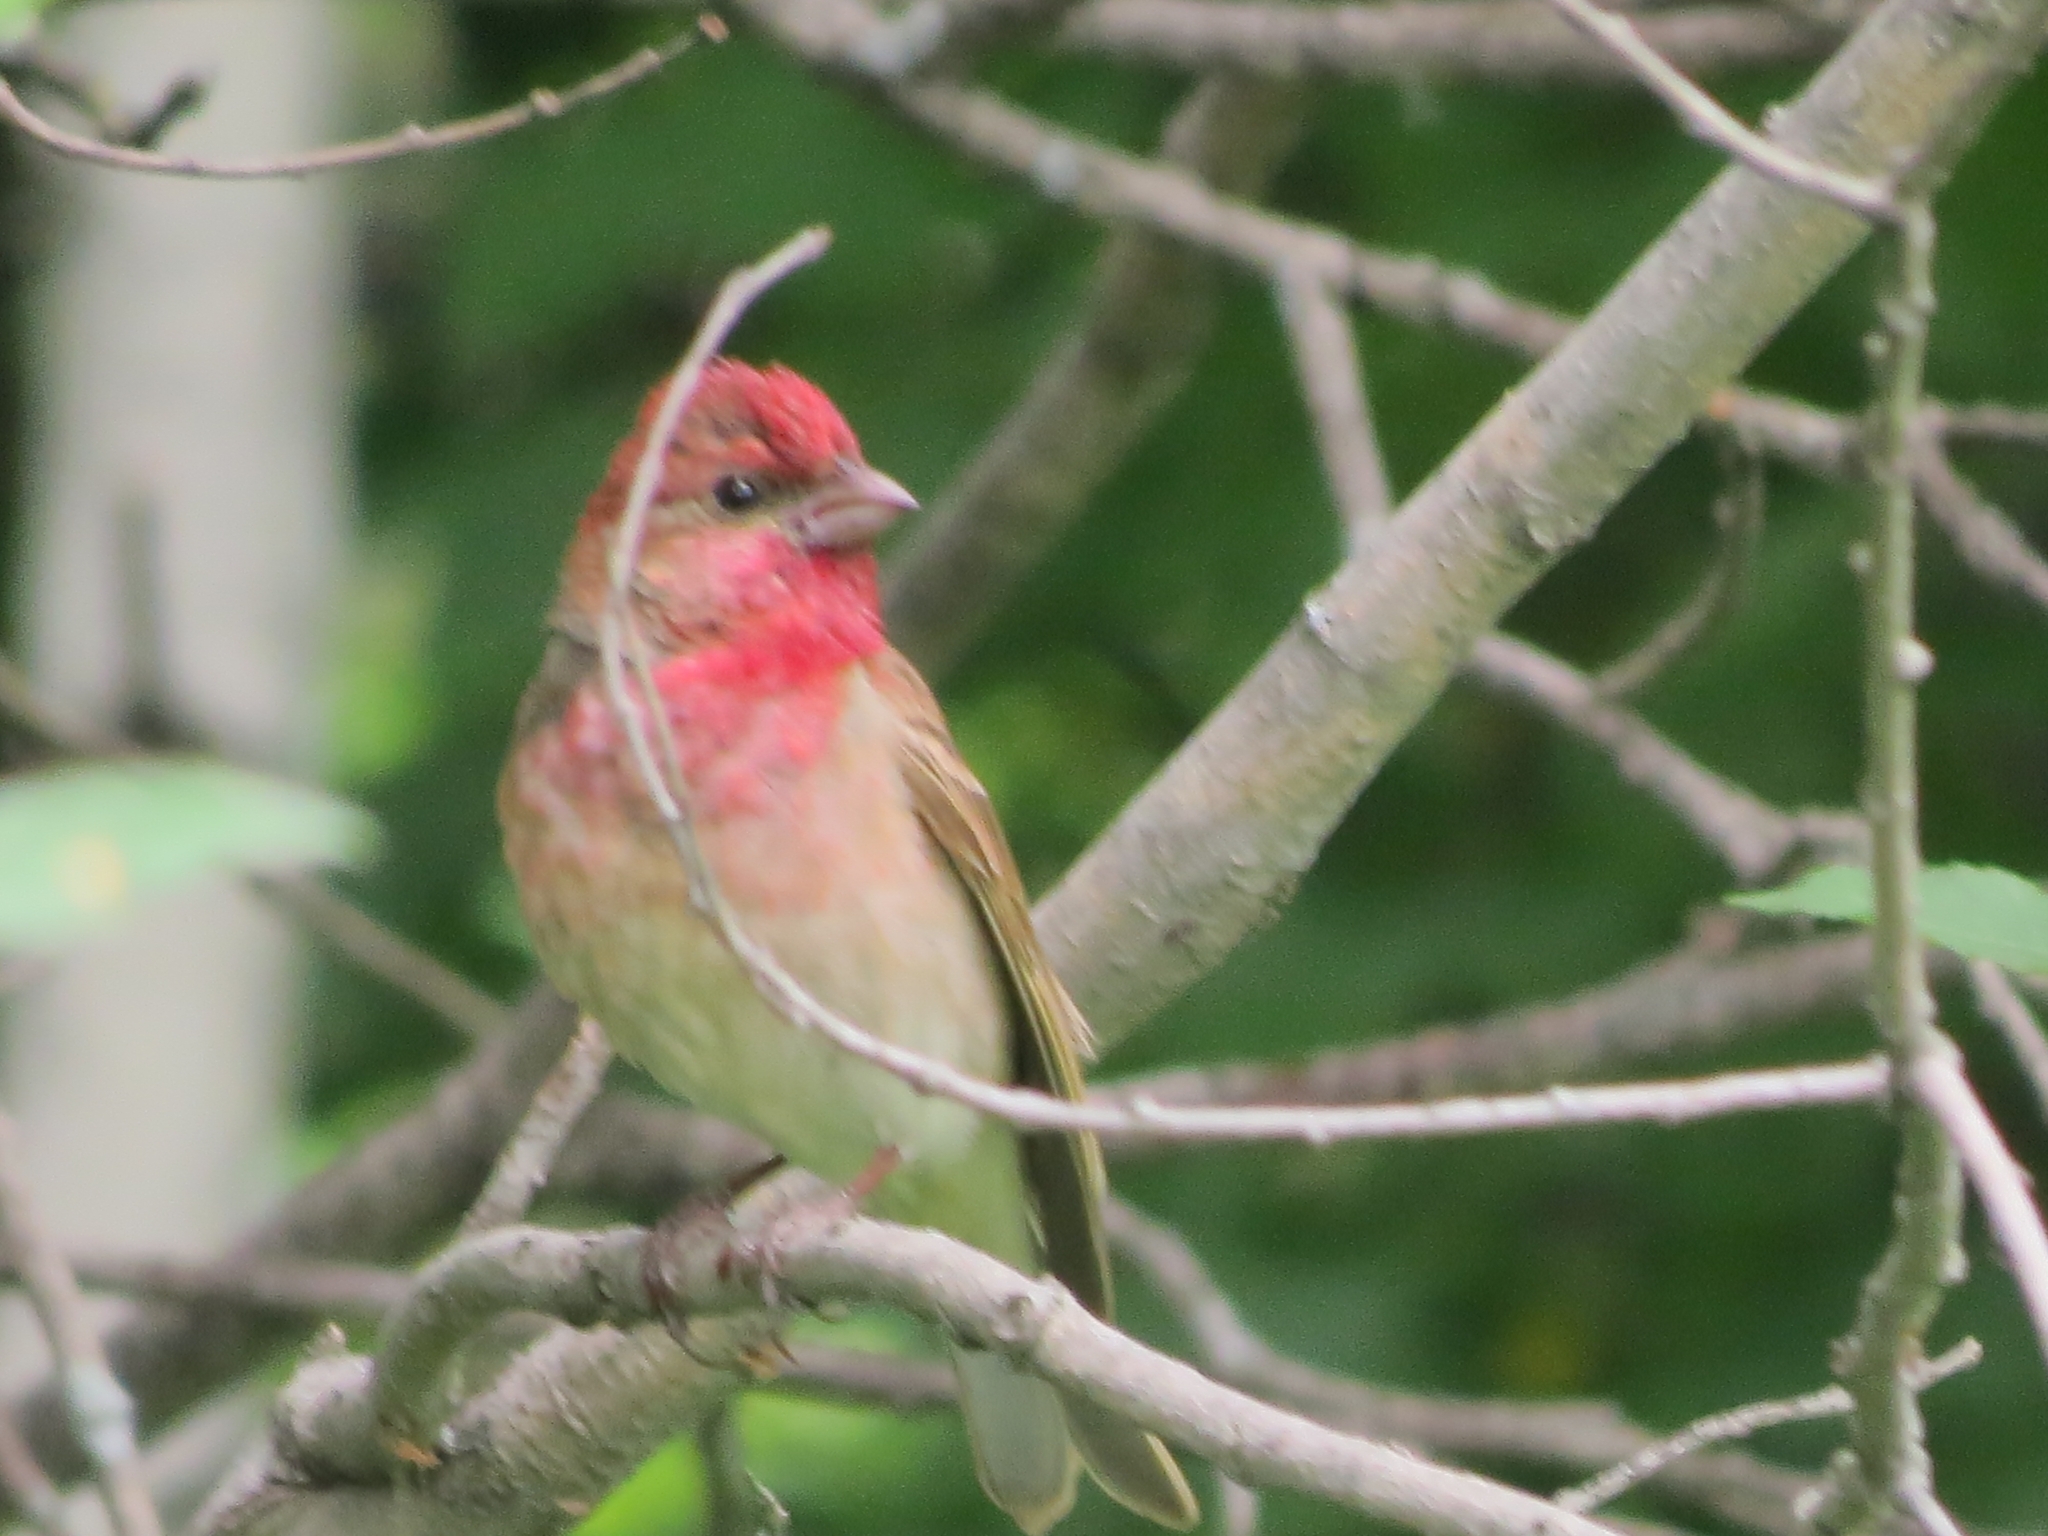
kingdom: Animalia
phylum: Chordata
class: Aves
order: Passeriformes
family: Fringillidae
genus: Carpodacus
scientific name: Carpodacus erythrinus
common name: Common rosefinch
